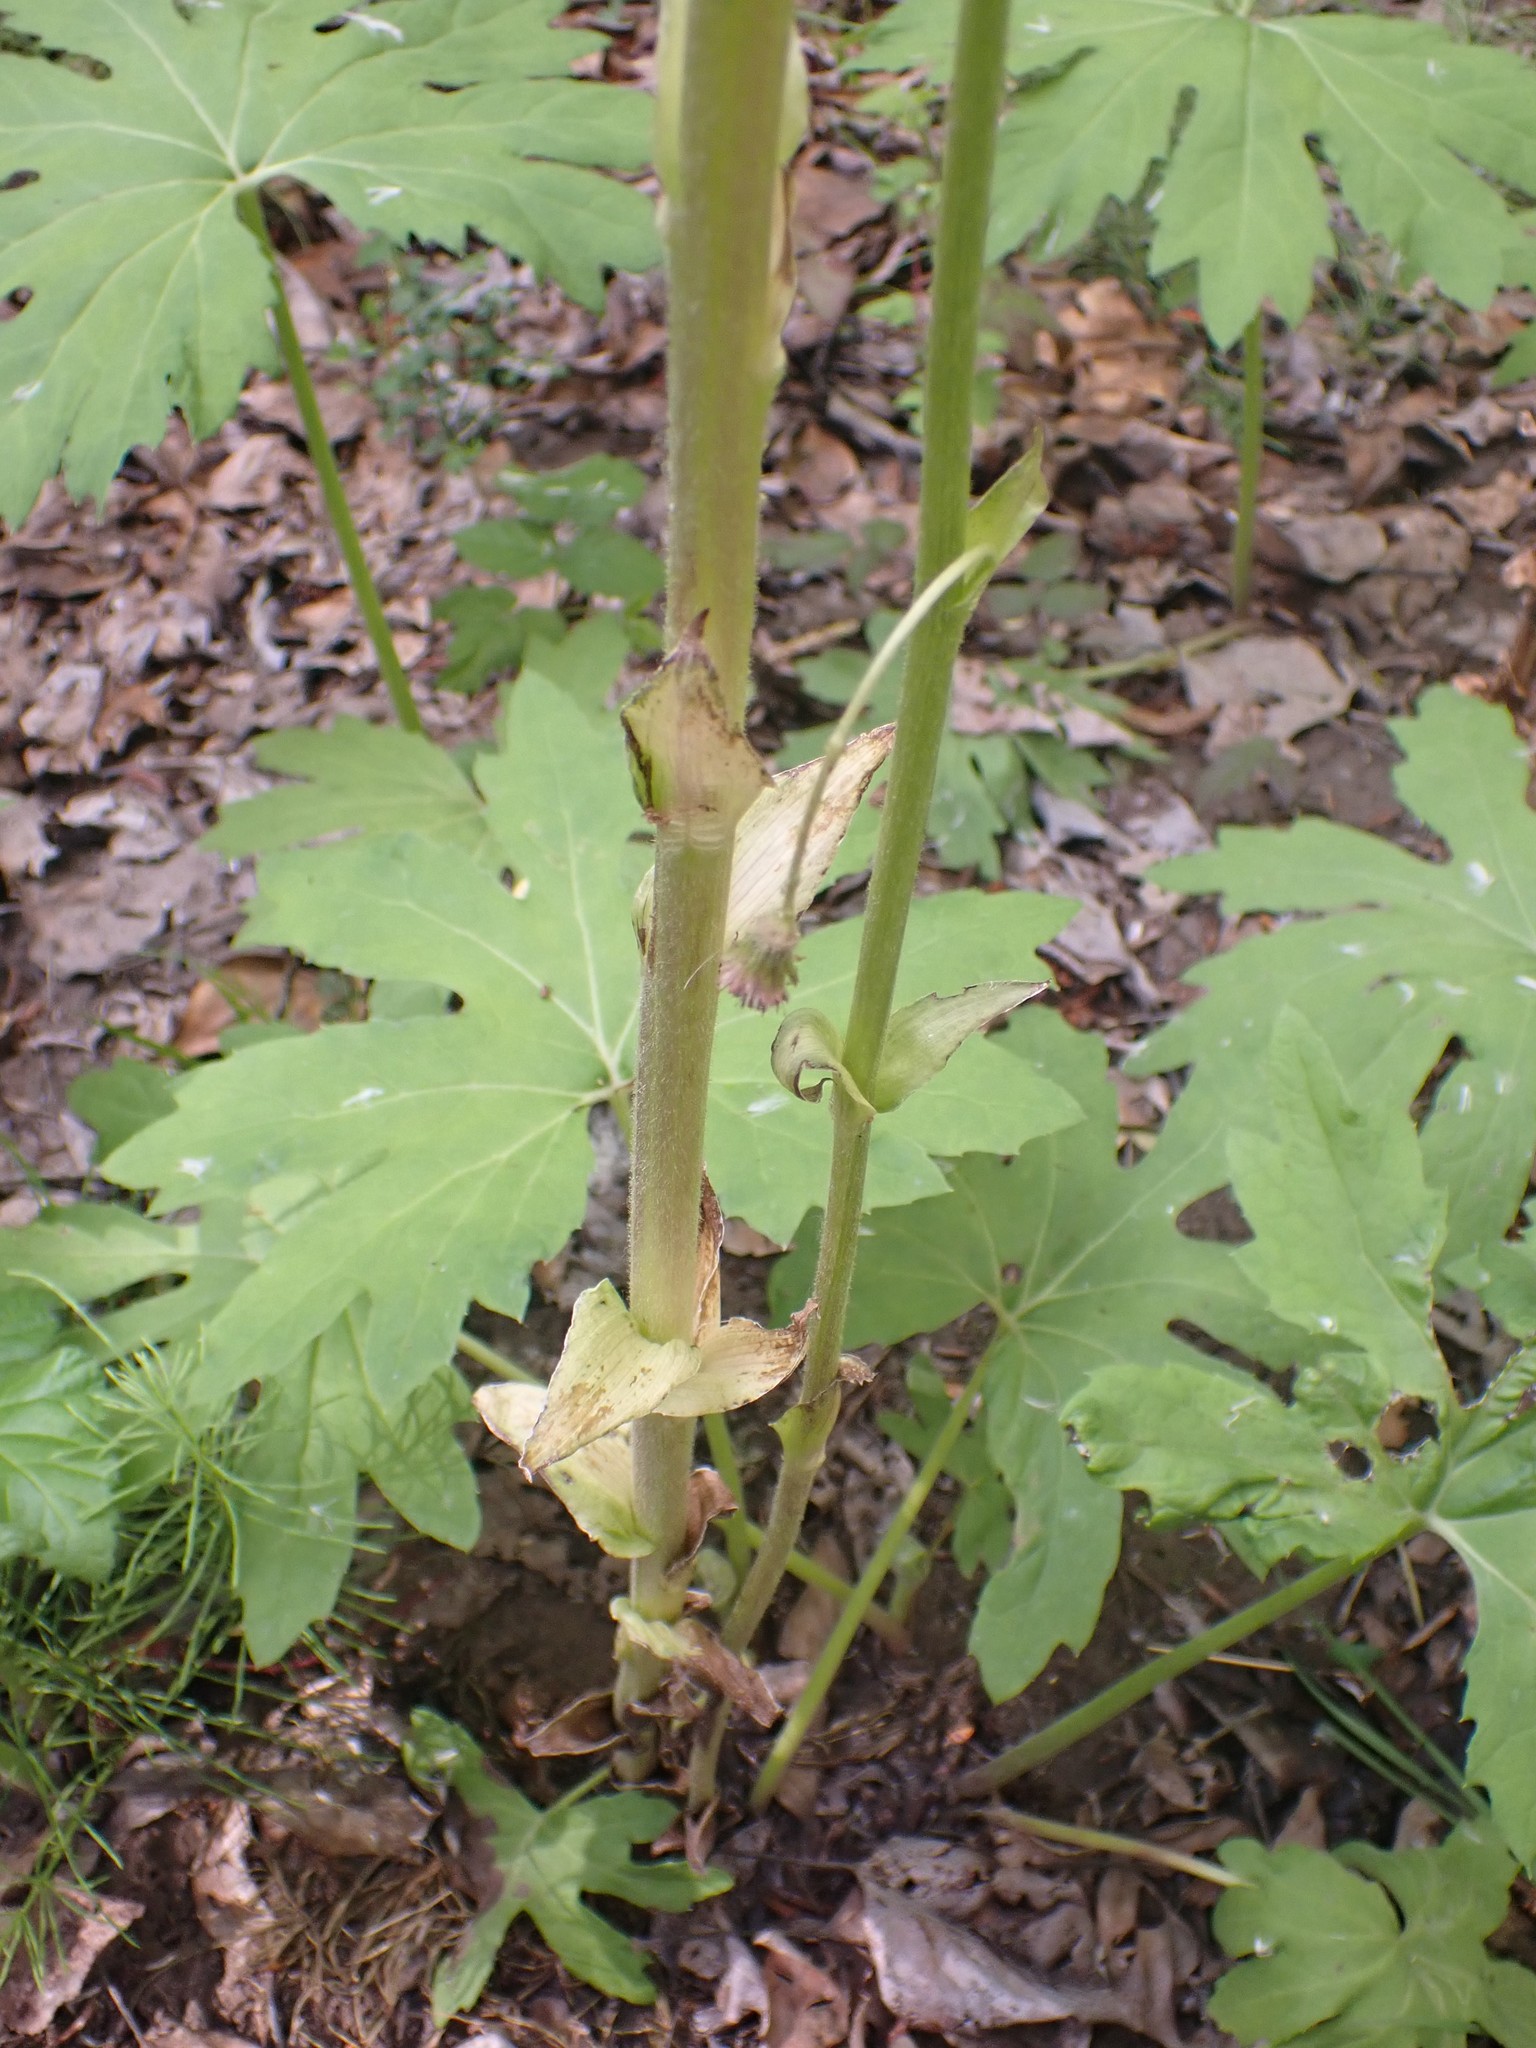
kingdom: Plantae
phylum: Tracheophyta
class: Magnoliopsida
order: Asterales
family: Asteraceae
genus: Petasites
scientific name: Petasites frigidus
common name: Arctic butterbur
